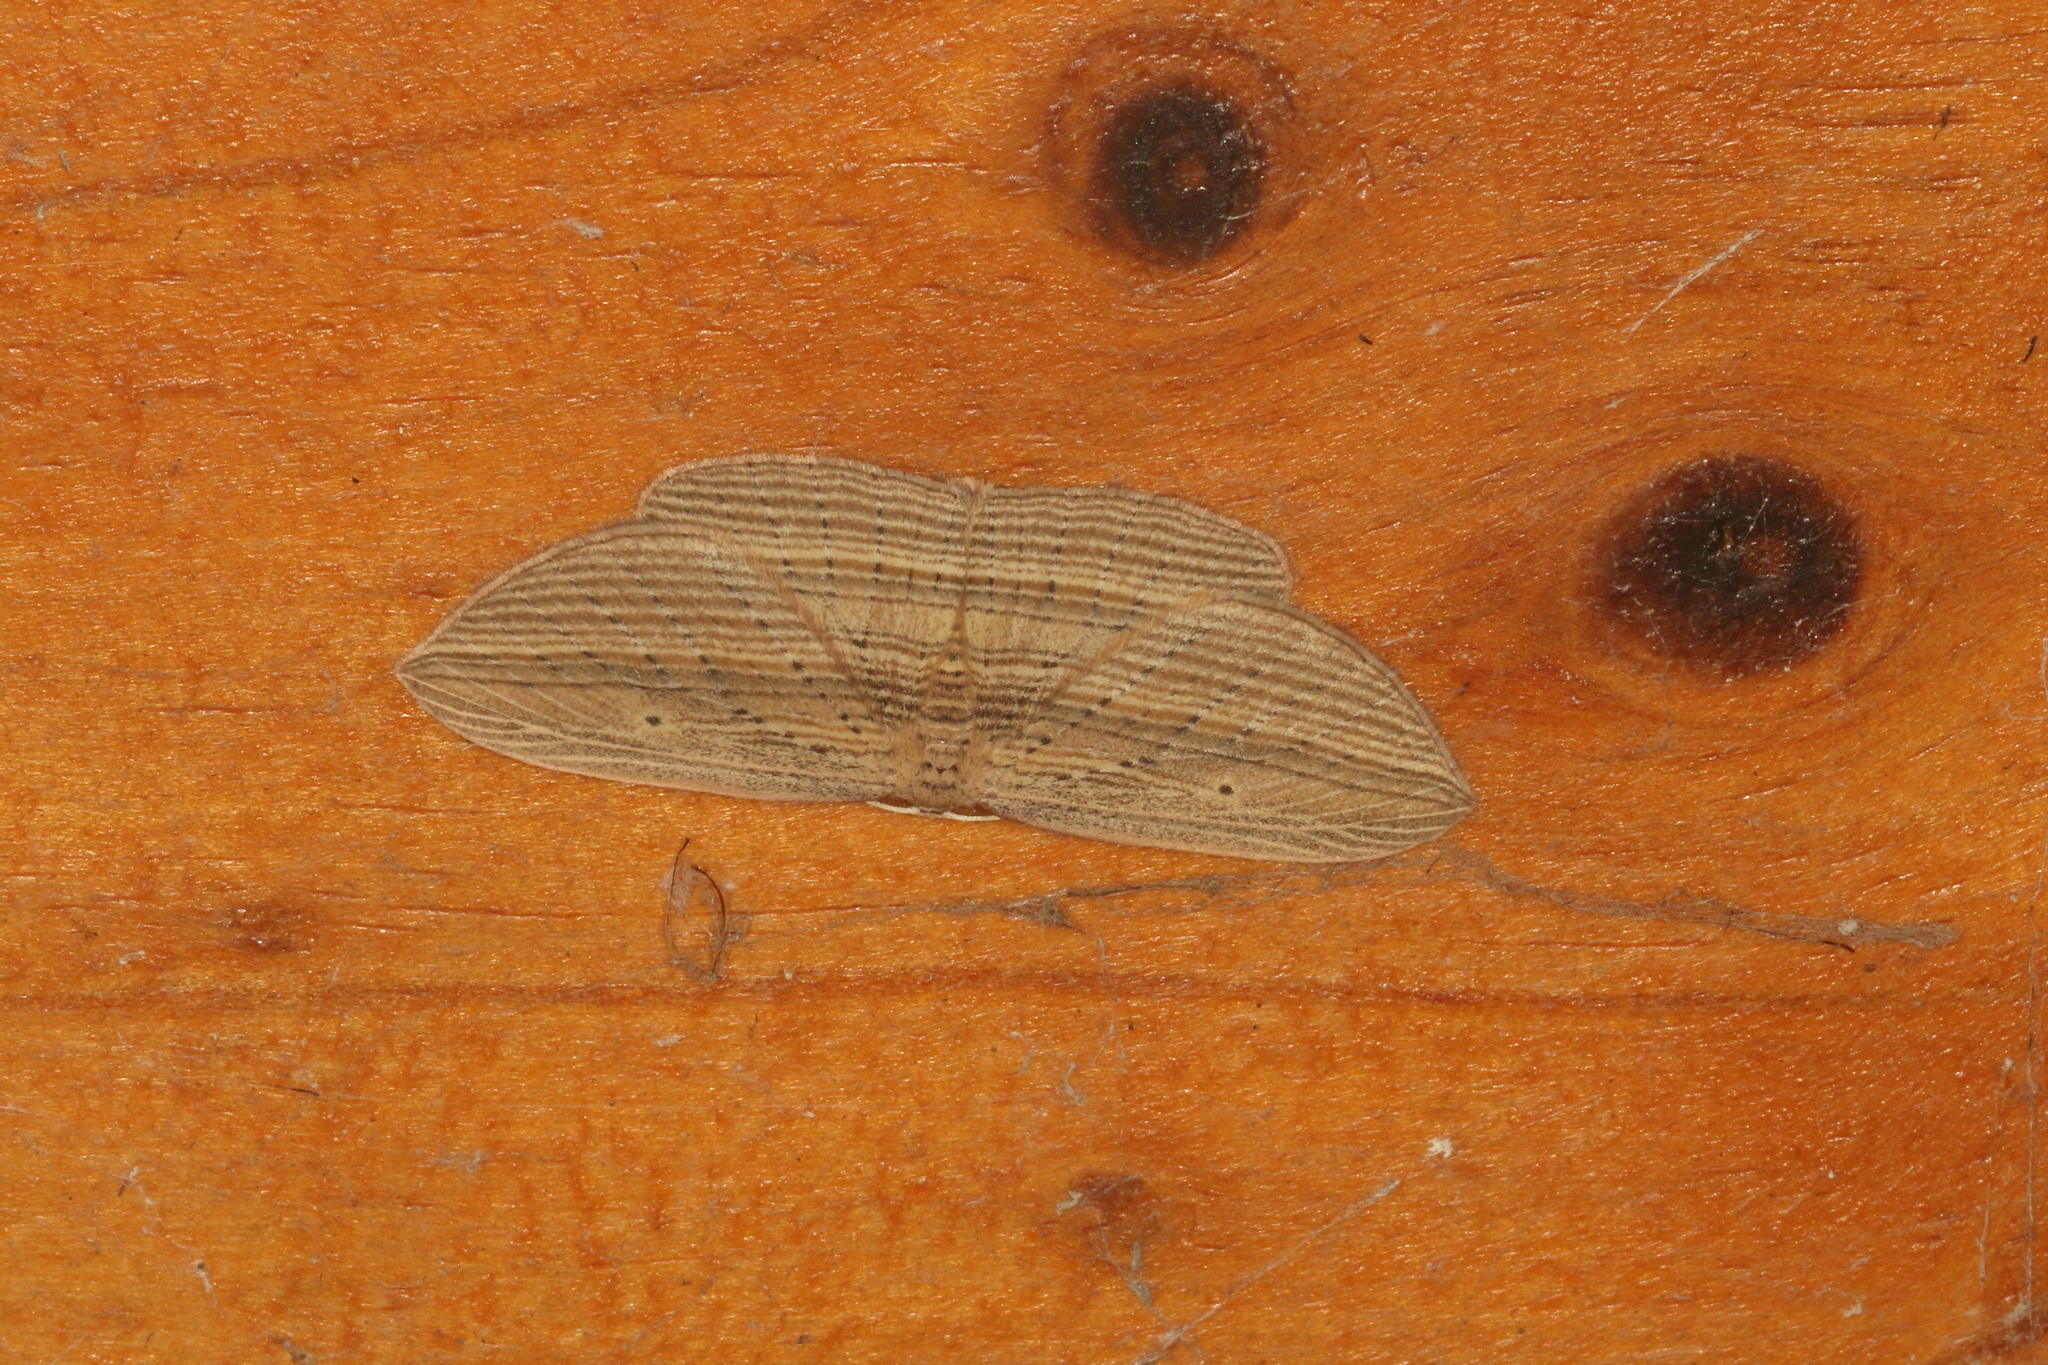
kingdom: Animalia
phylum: Arthropoda
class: Insecta
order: Lepidoptera
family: Geometridae
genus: Epiphryne
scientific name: Epiphryne verriculata
